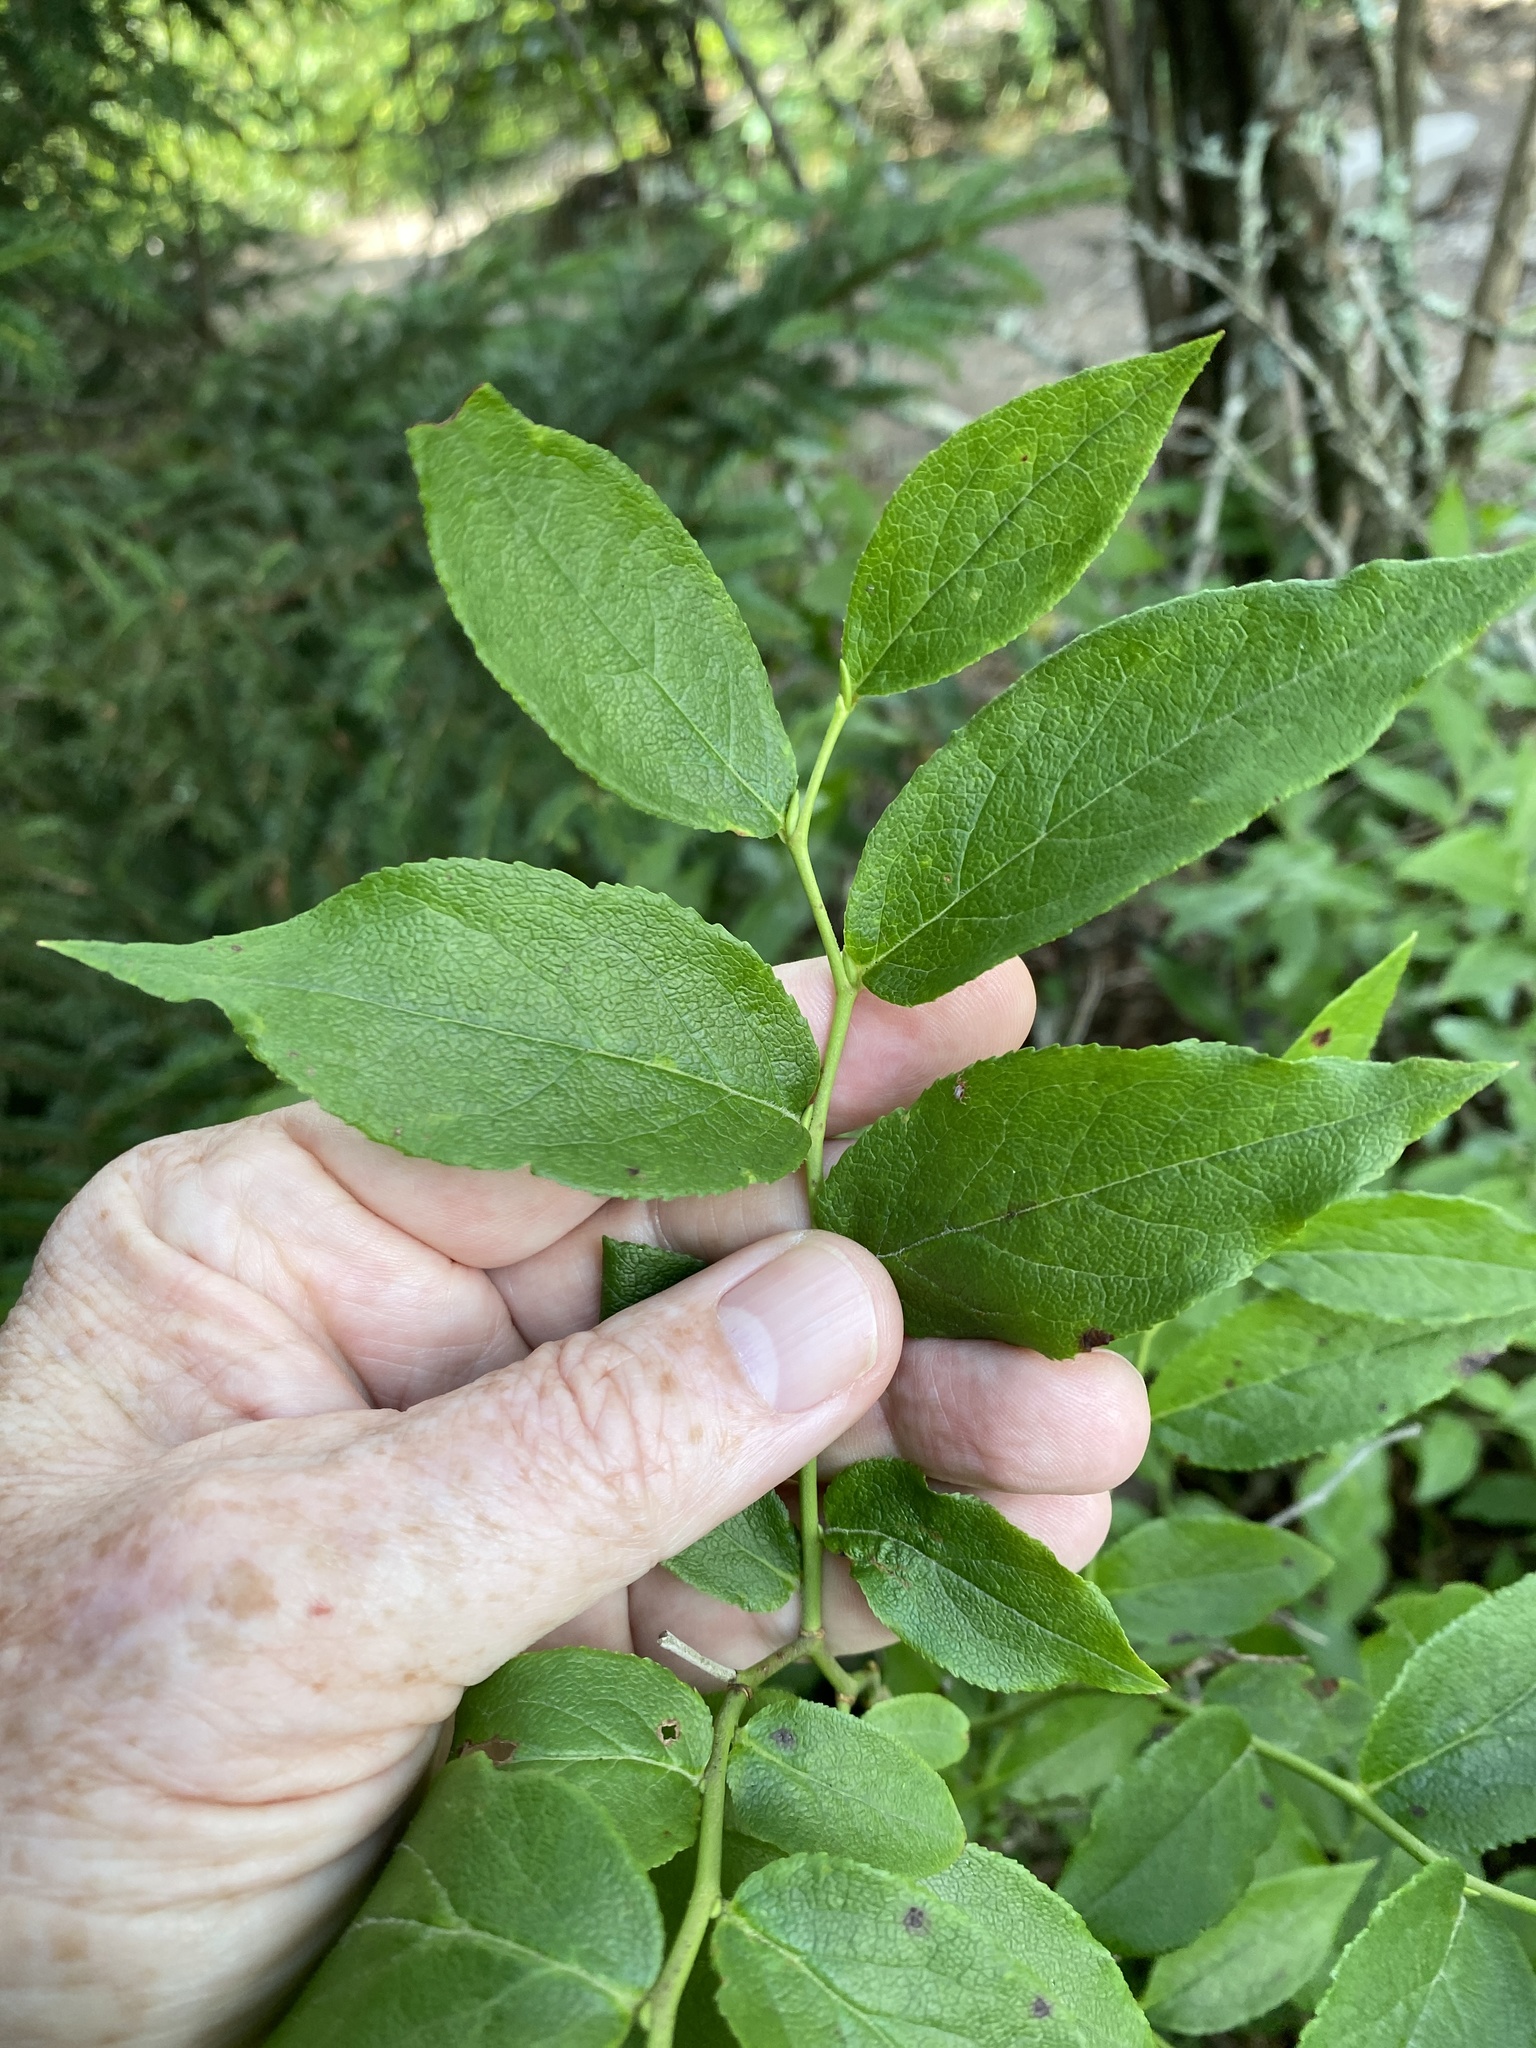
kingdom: Plantae
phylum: Tracheophyta
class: Magnoliopsida
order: Ericales
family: Ericaceae
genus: Vaccinium
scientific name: Vaccinium erythrocarpum
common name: Bearberry
